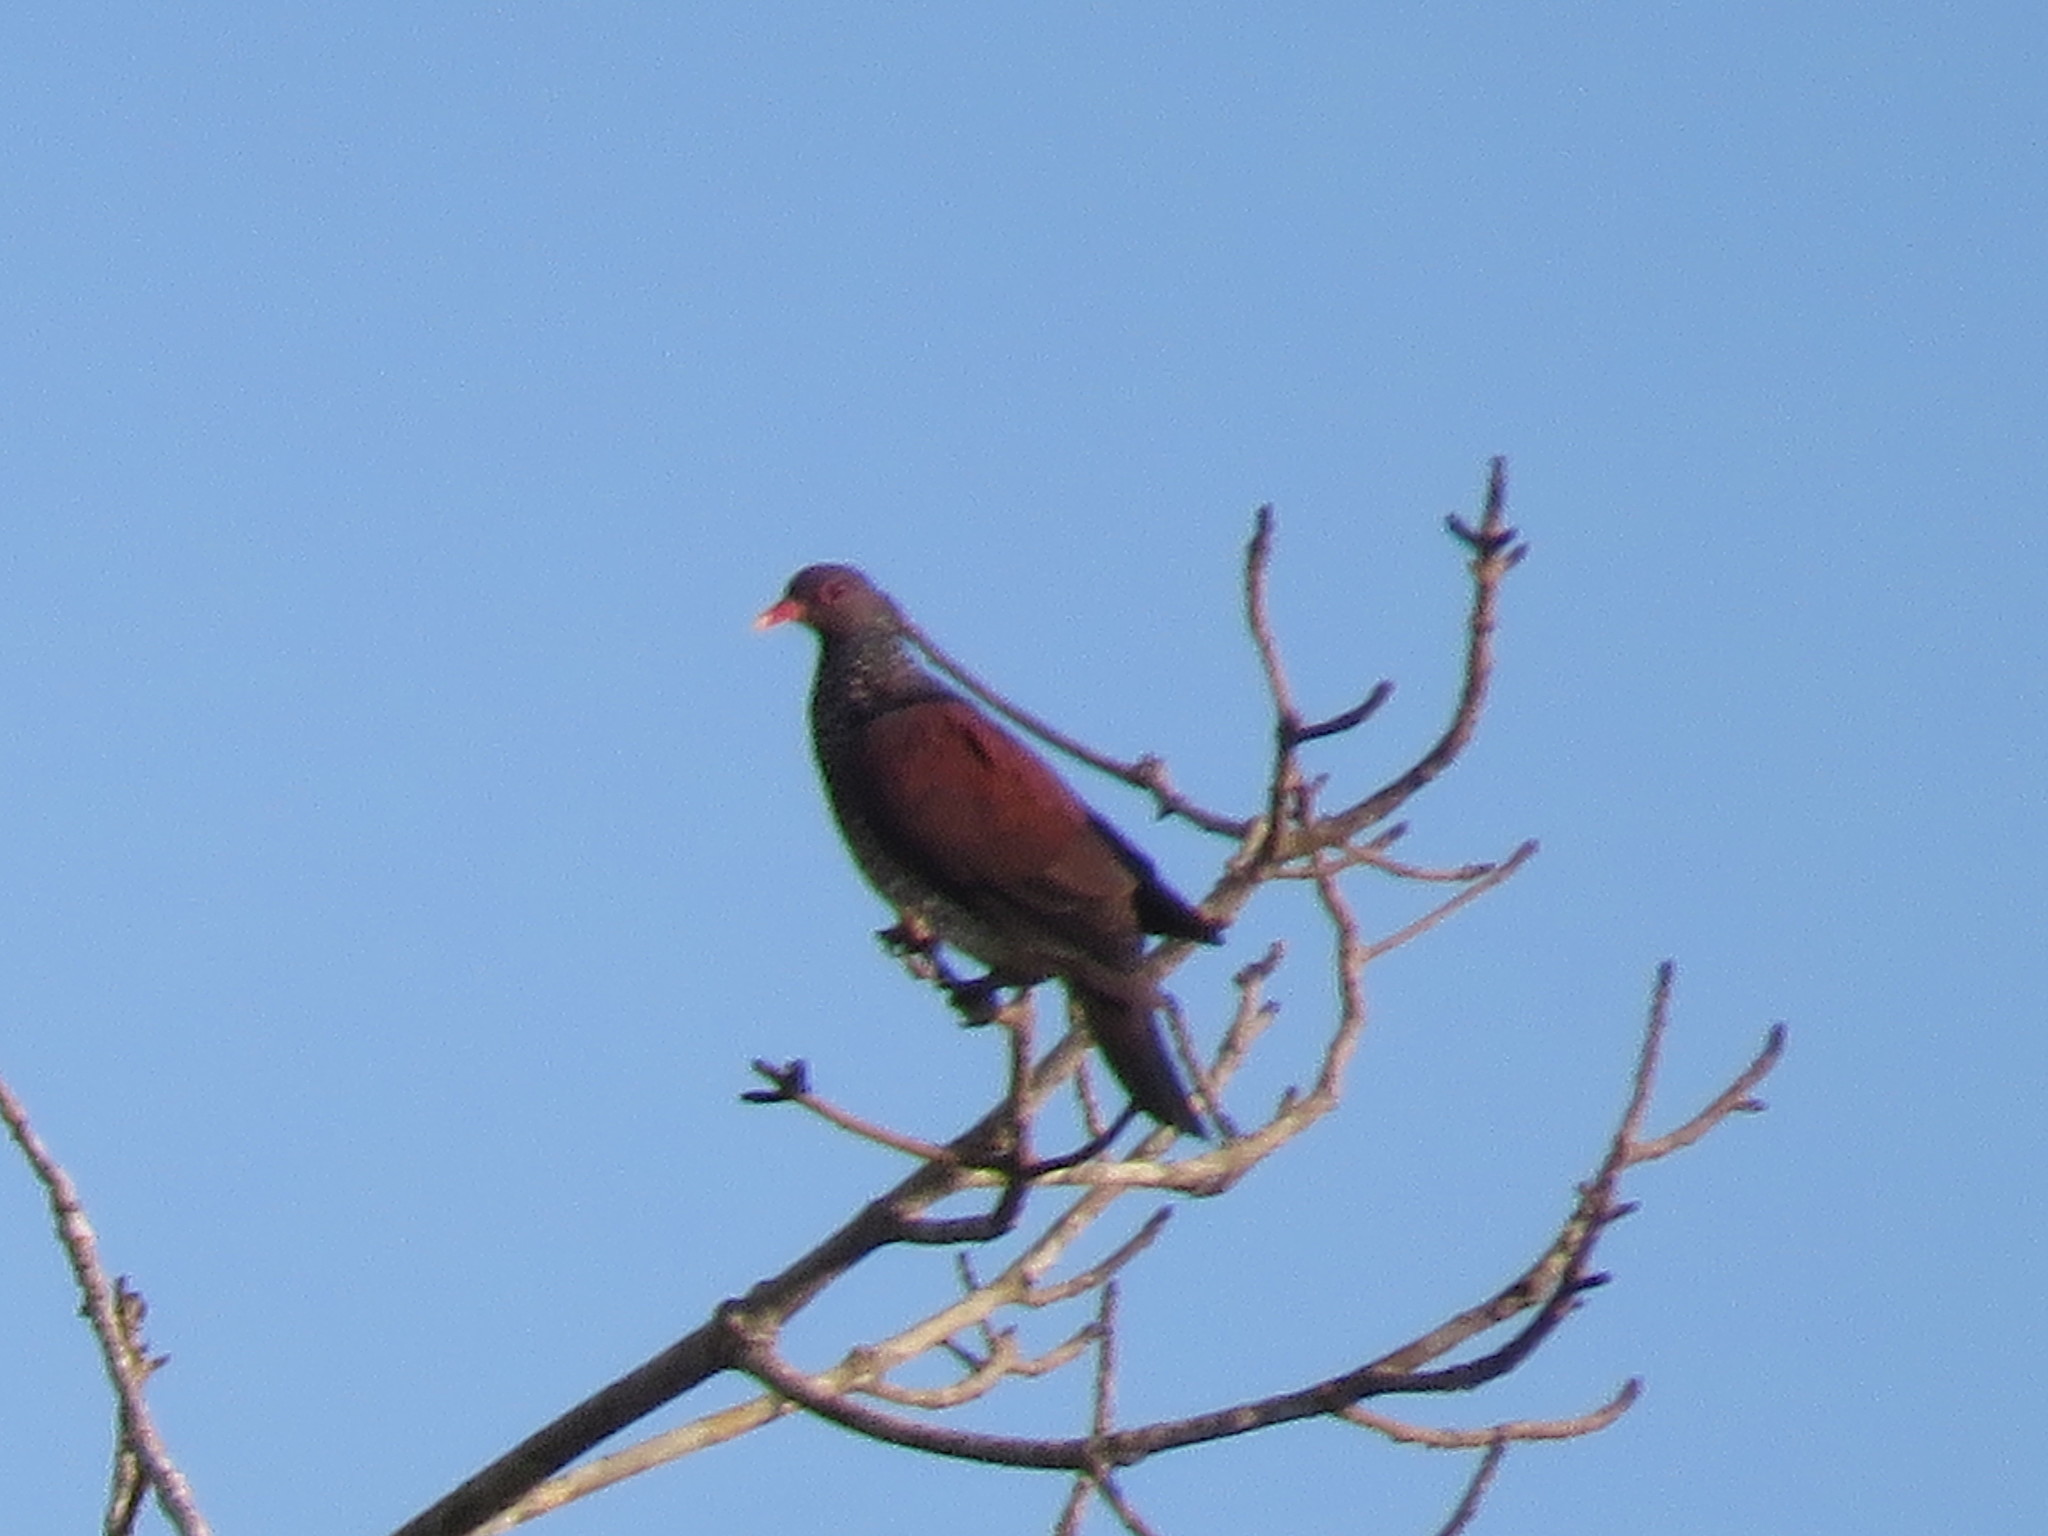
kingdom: Animalia
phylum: Chordata
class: Aves
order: Columbiformes
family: Columbidae
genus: Patagioenas
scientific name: Patagioenas speciosa
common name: Scaled pigeon
